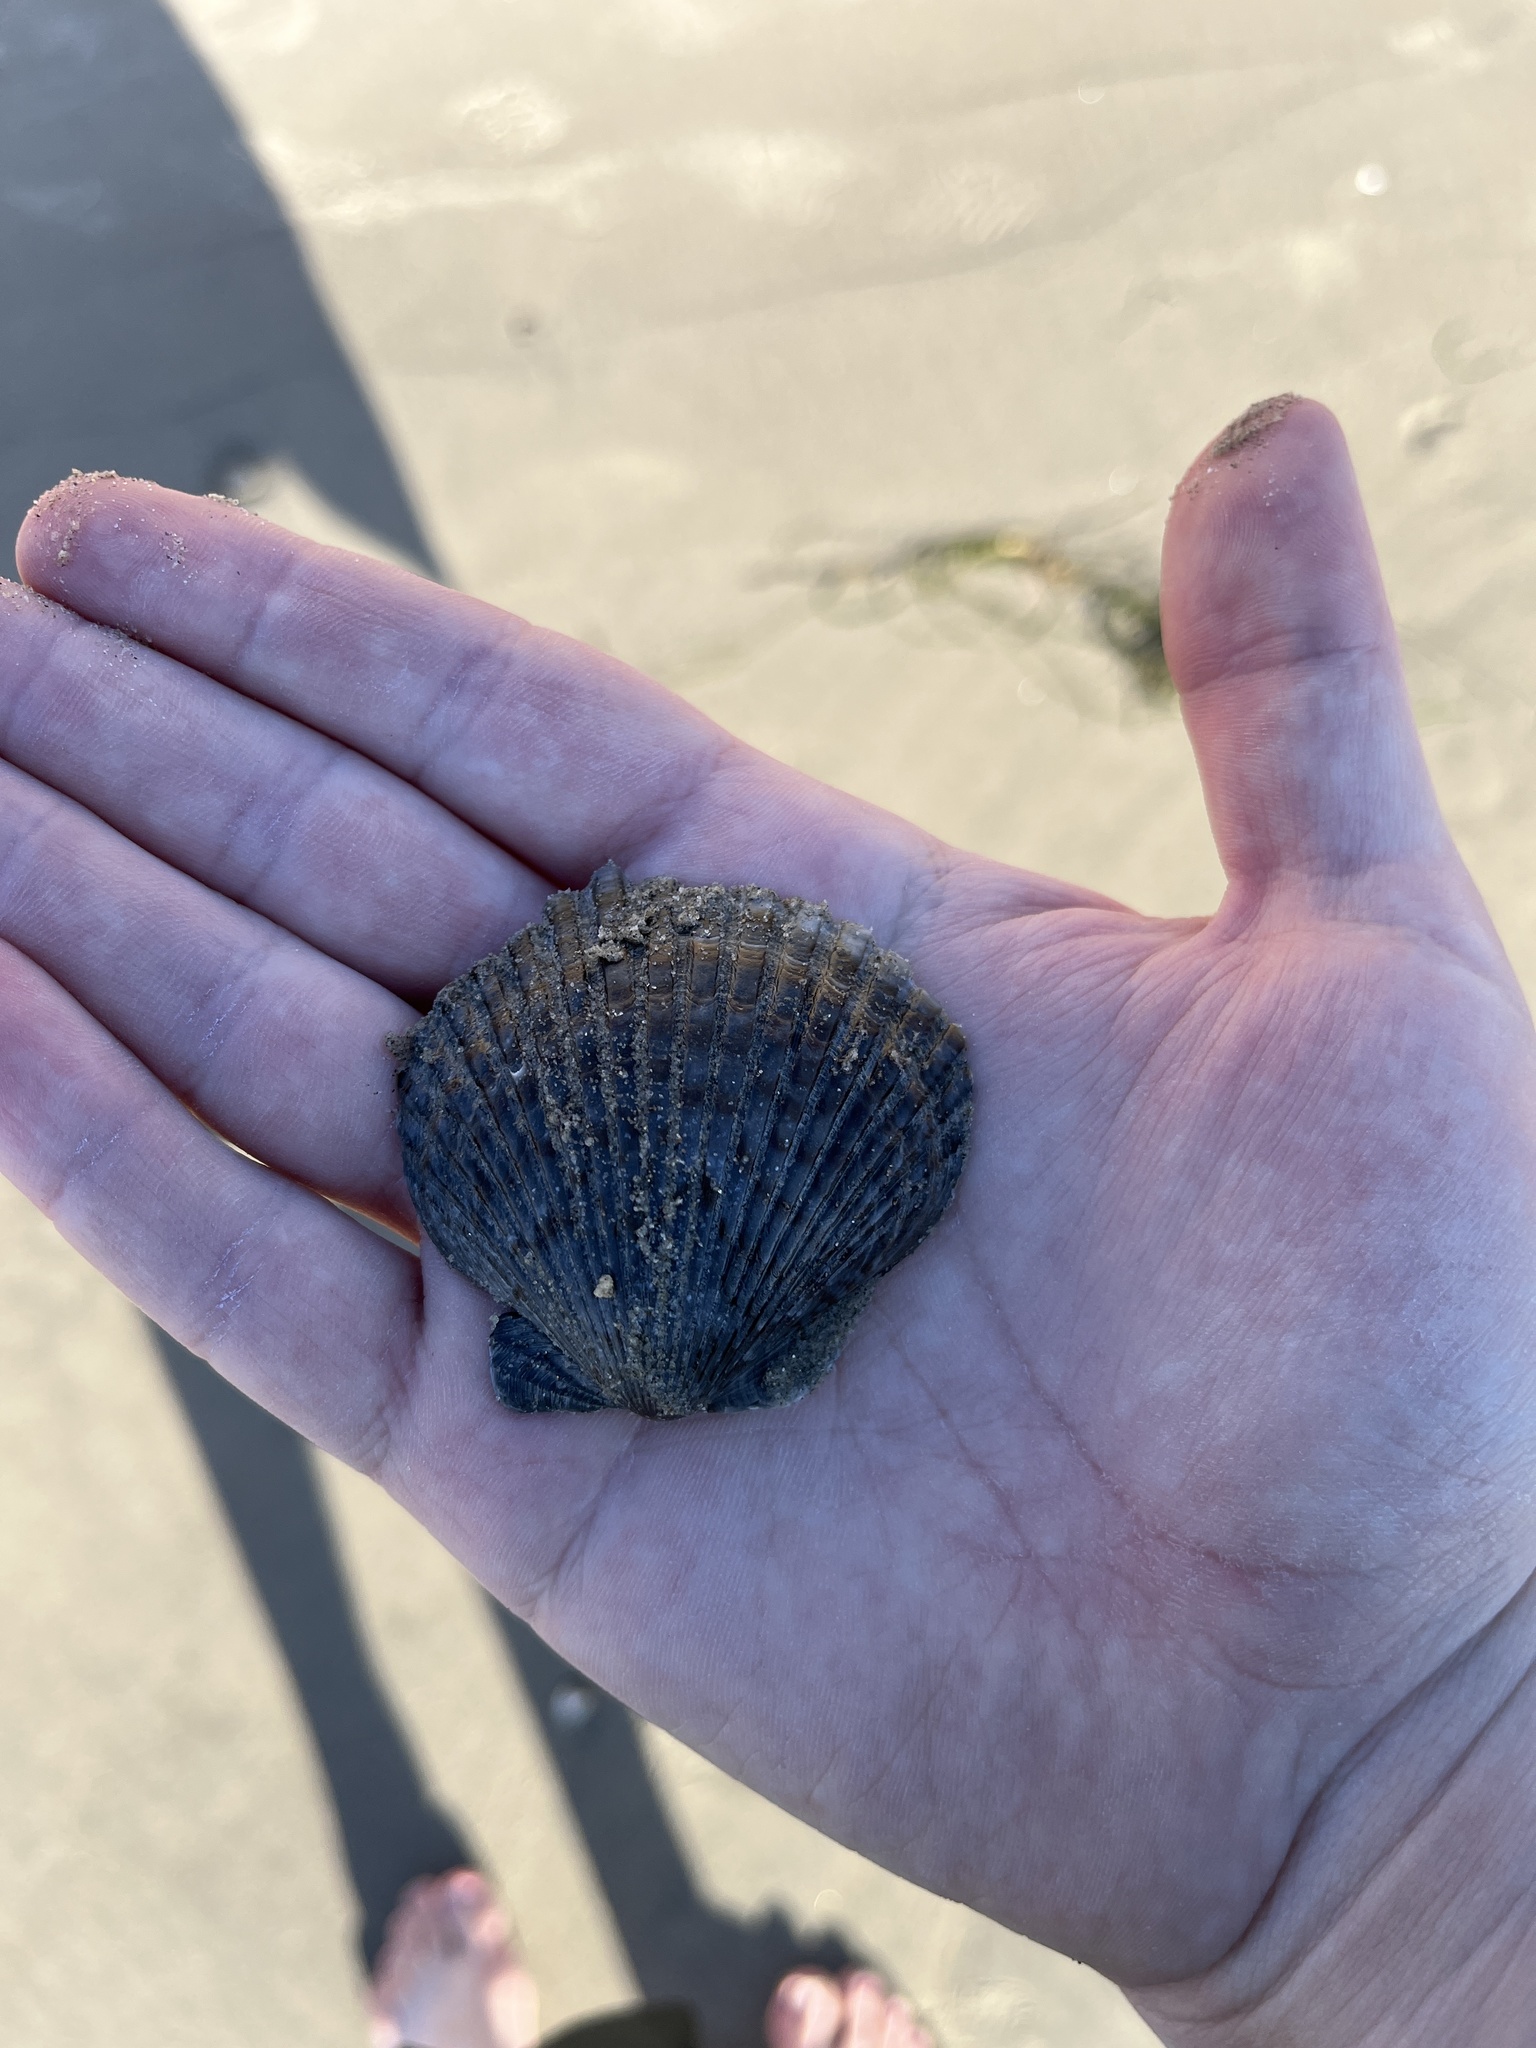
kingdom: Animalia
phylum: Mollusca
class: Bivalvia
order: Pectinida
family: Pectinidae
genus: Argopecten
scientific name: Argopecten ventricosus
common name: Catarina scallop
